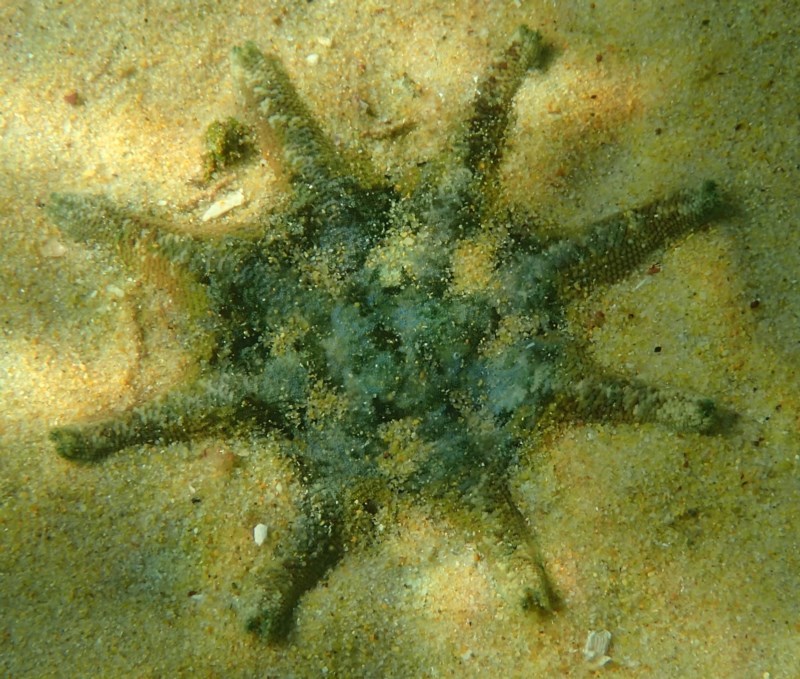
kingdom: Animalia
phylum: Echinodermata
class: Asteroidea
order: Valvatida
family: Asterinidae
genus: Meridiastra
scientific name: Meridiastra calcar
